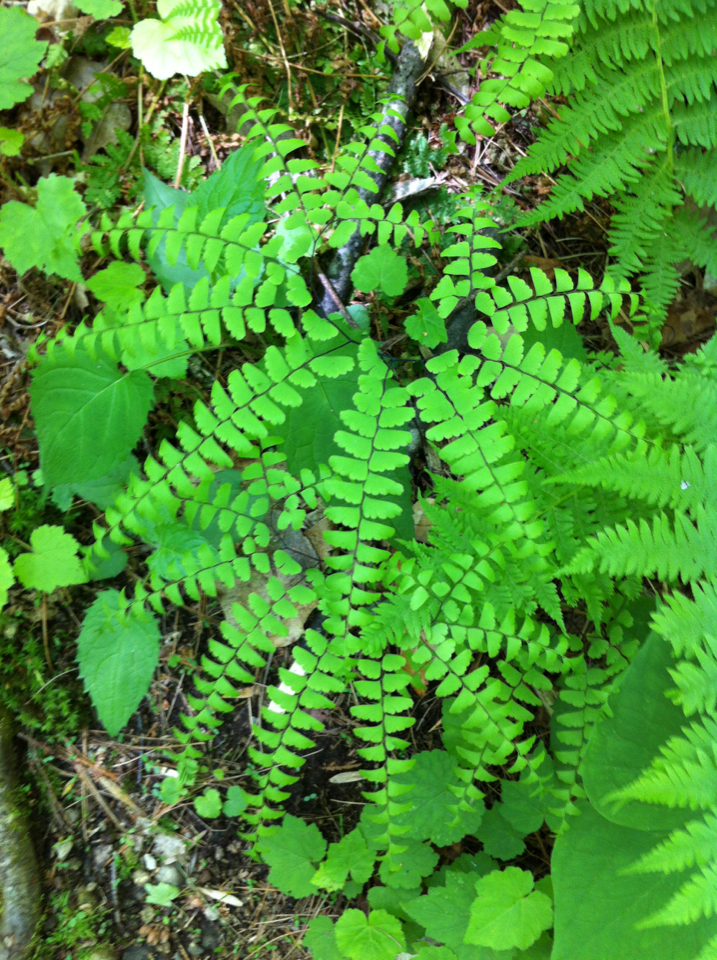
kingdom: Plantae
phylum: Tracheophyta
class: Polypodiopsida
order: Polypodiales
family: Pteridaceae
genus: Adiantum
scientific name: Adiantum pedatum
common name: Five-finger fern
